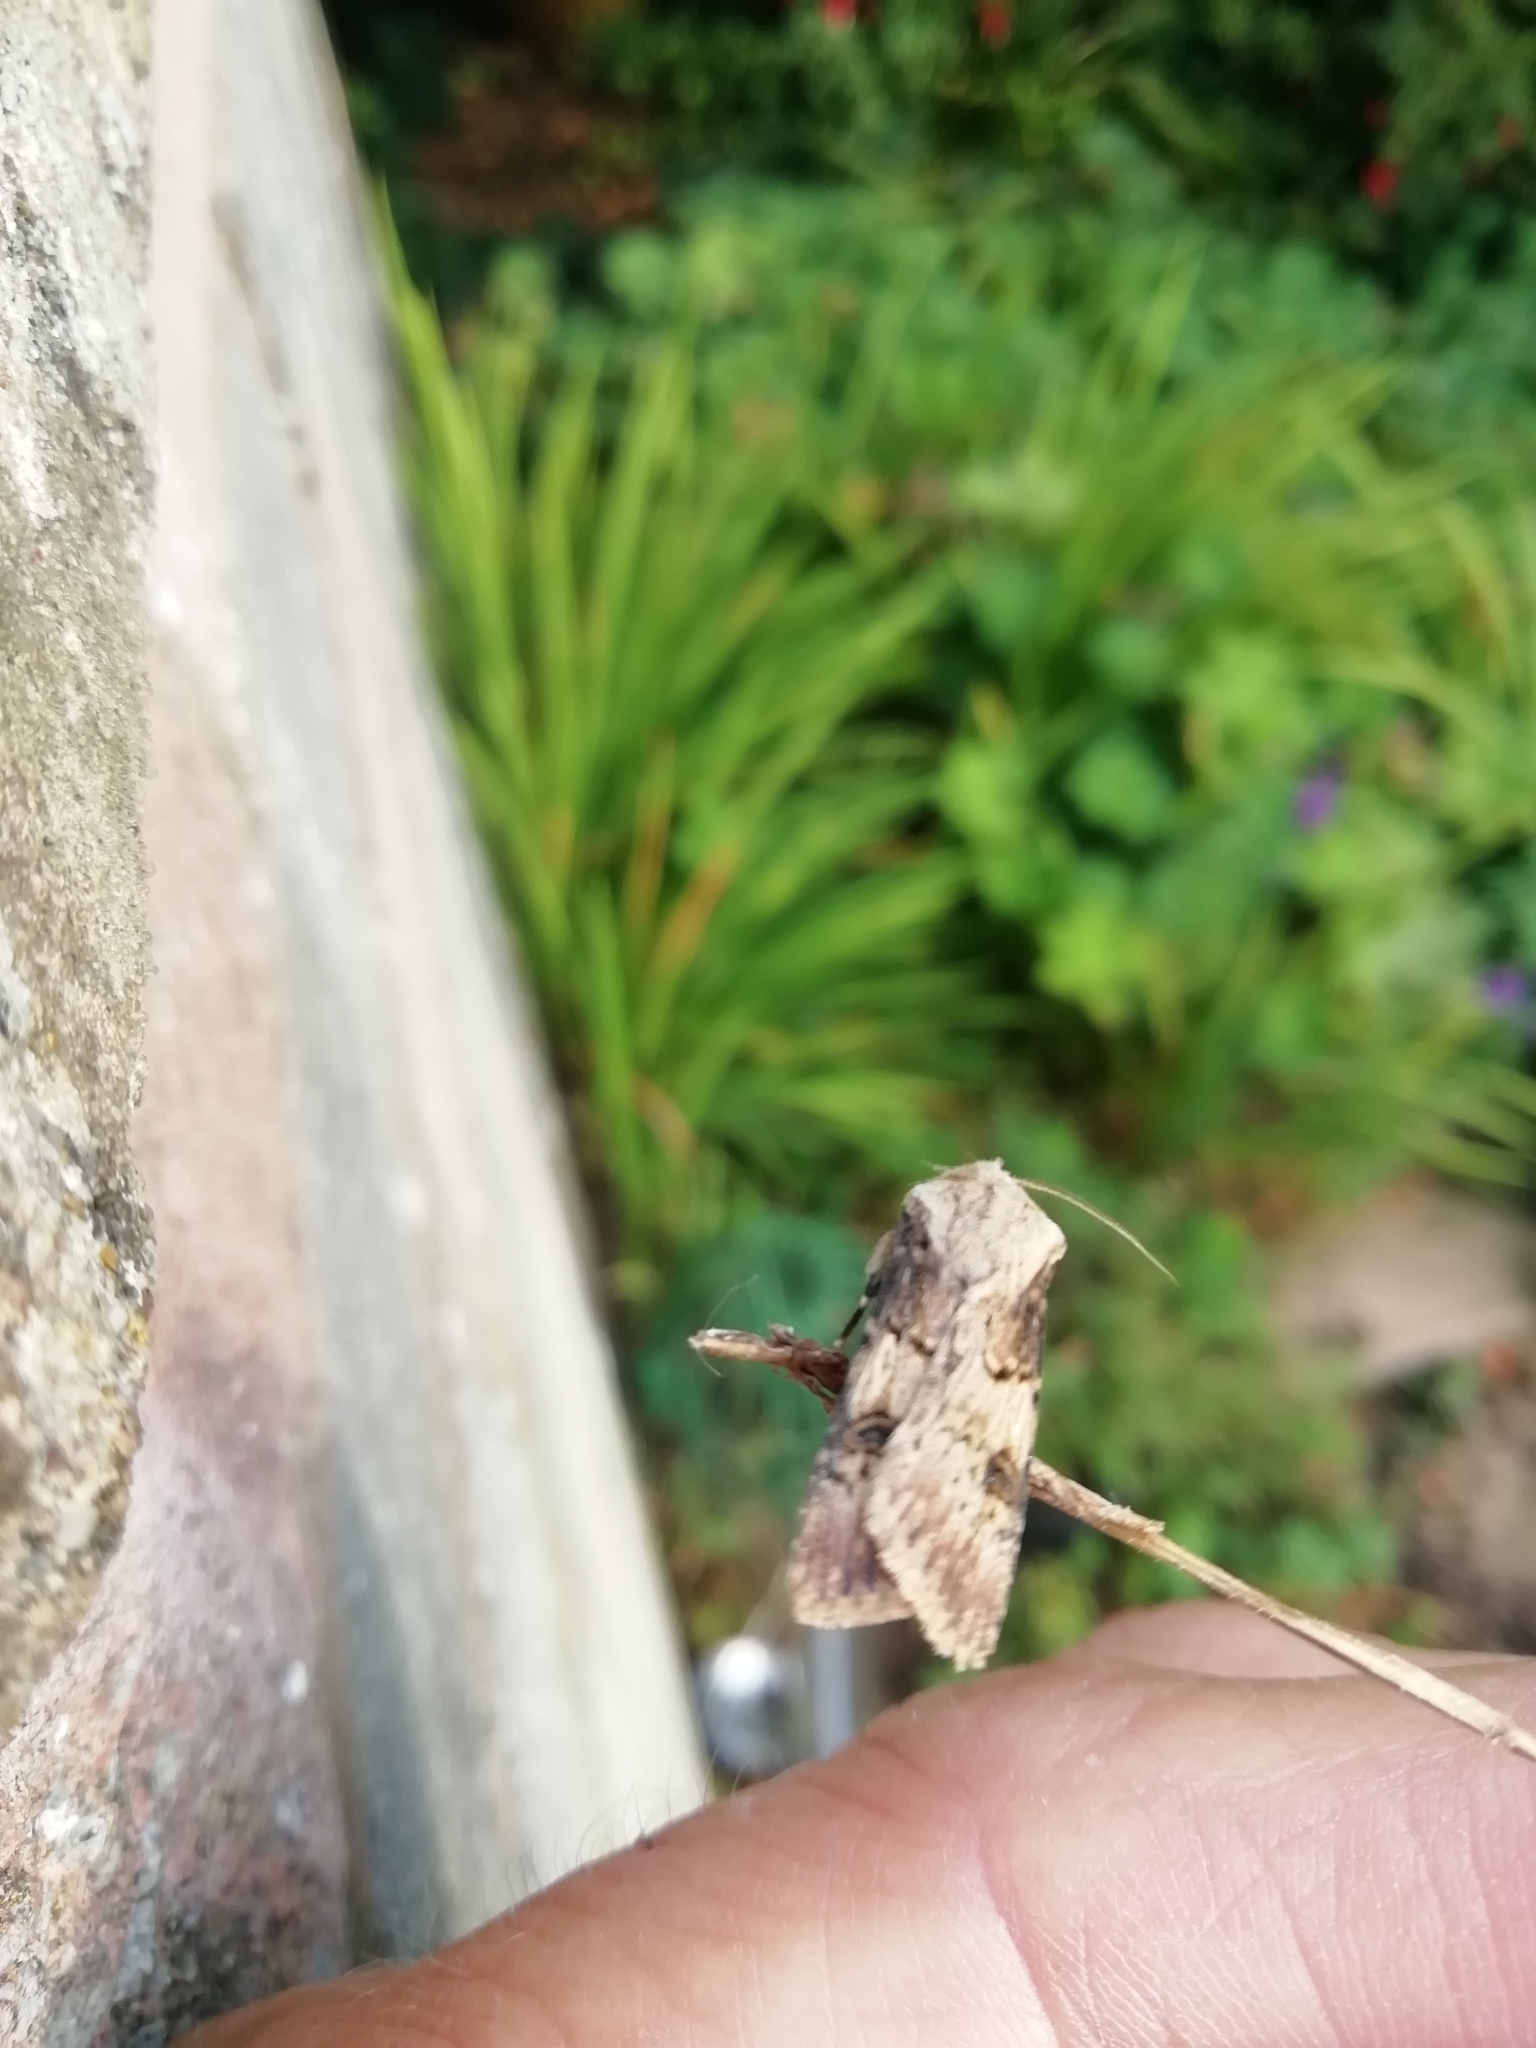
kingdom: Animalia
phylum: Arthropoda
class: Insecta
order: Lepidoptera
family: Noctuidae
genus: Agrotis
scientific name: Agrotis puta
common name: Shuttle-shaped dart
